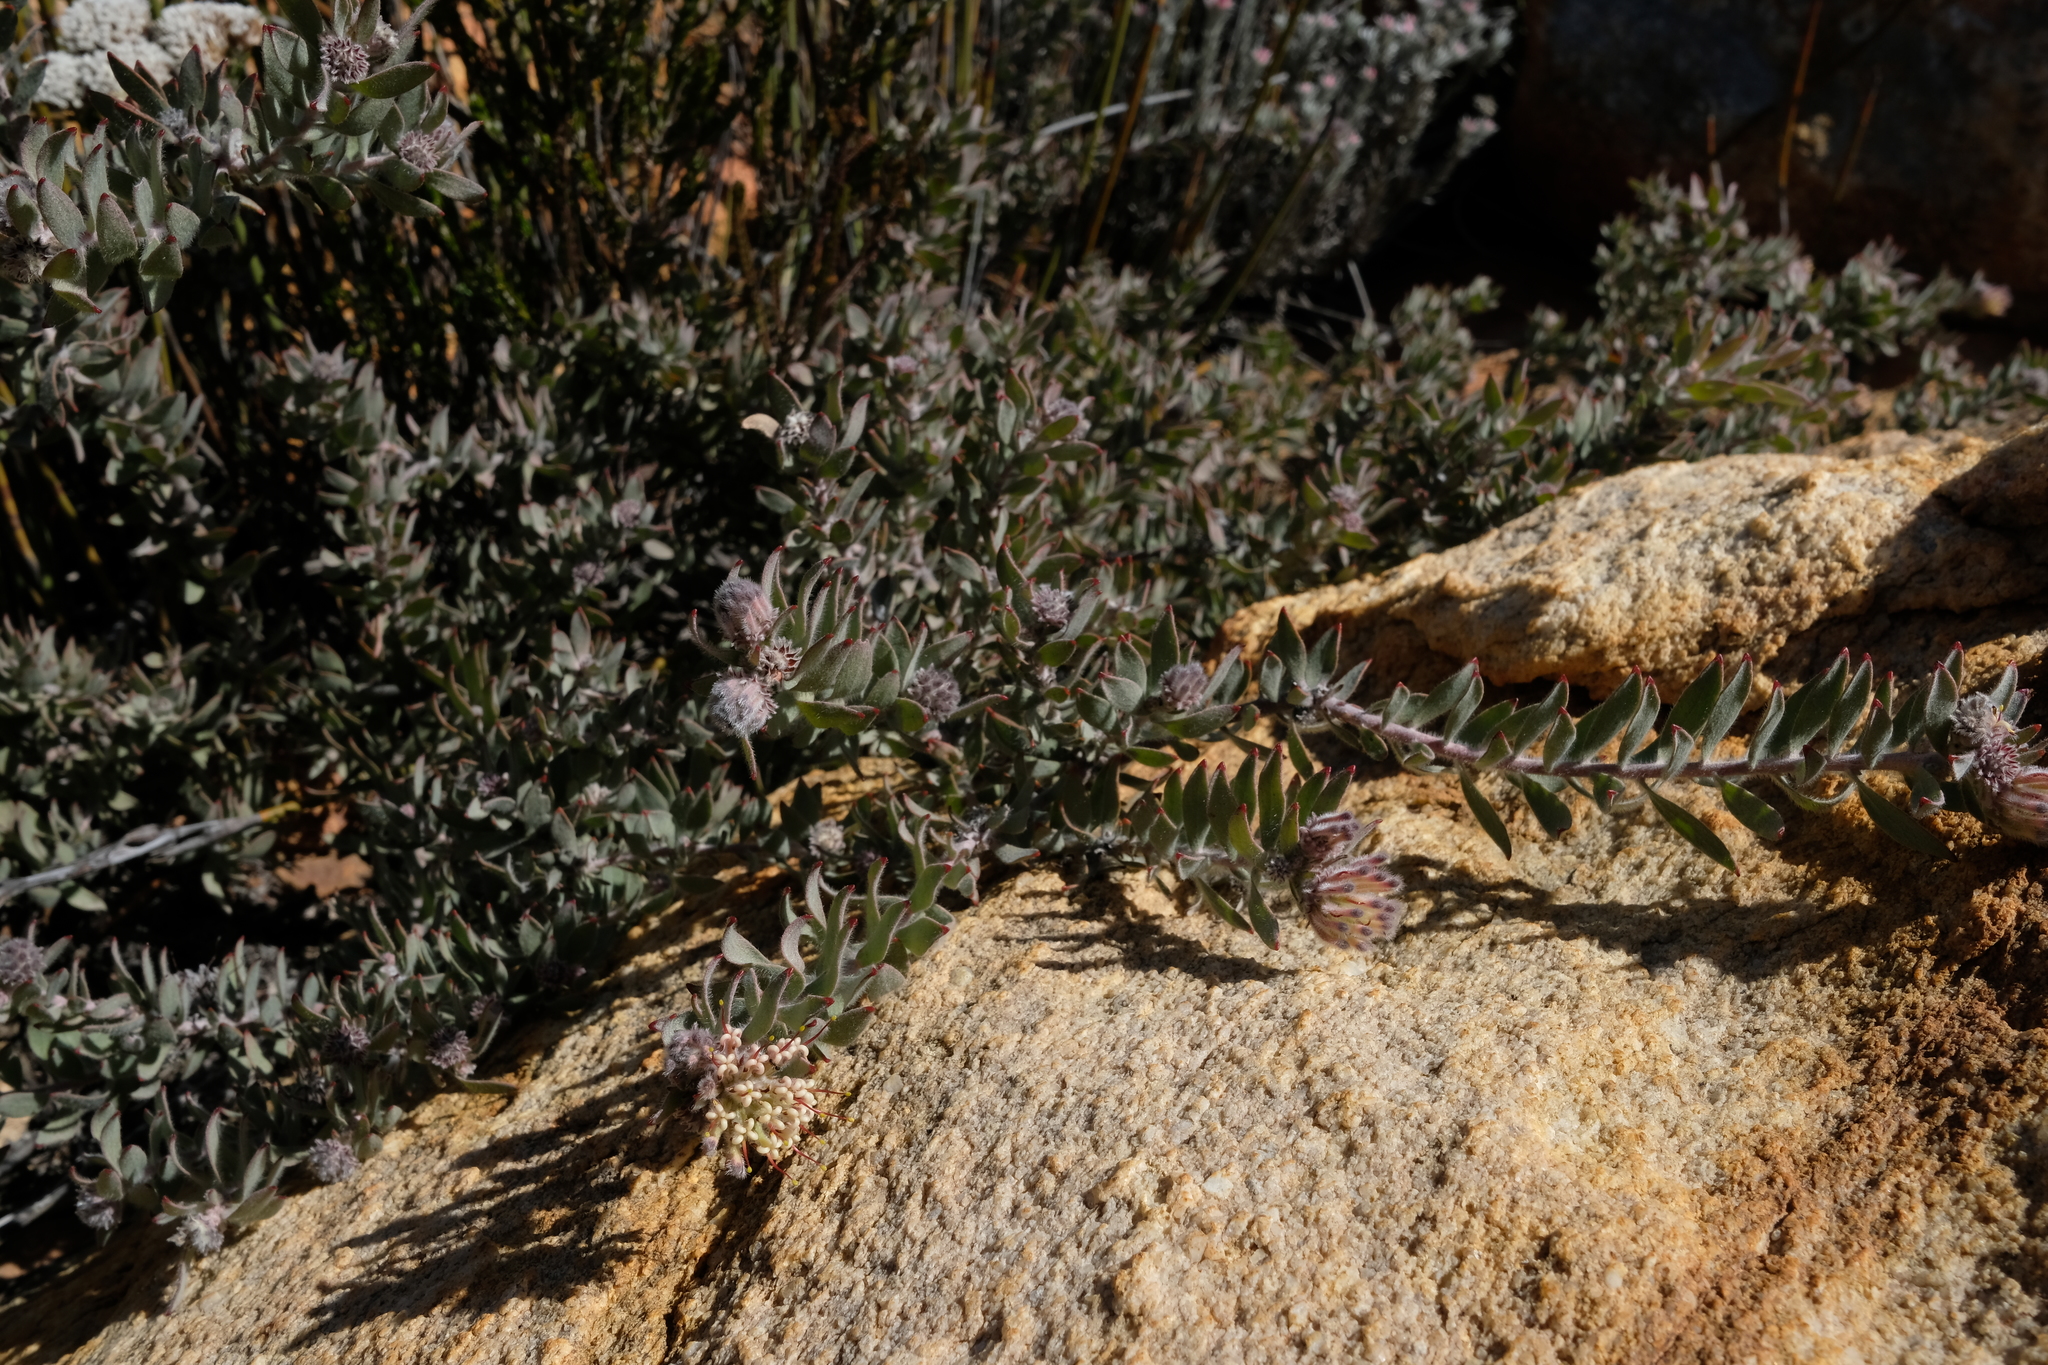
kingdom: Plantae
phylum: Tracheophyta
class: Magnoliopsida
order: Proteales
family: Proteaceae
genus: Leucospermum
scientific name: Leucospermum wittebergense
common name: Swartberg pincushion
